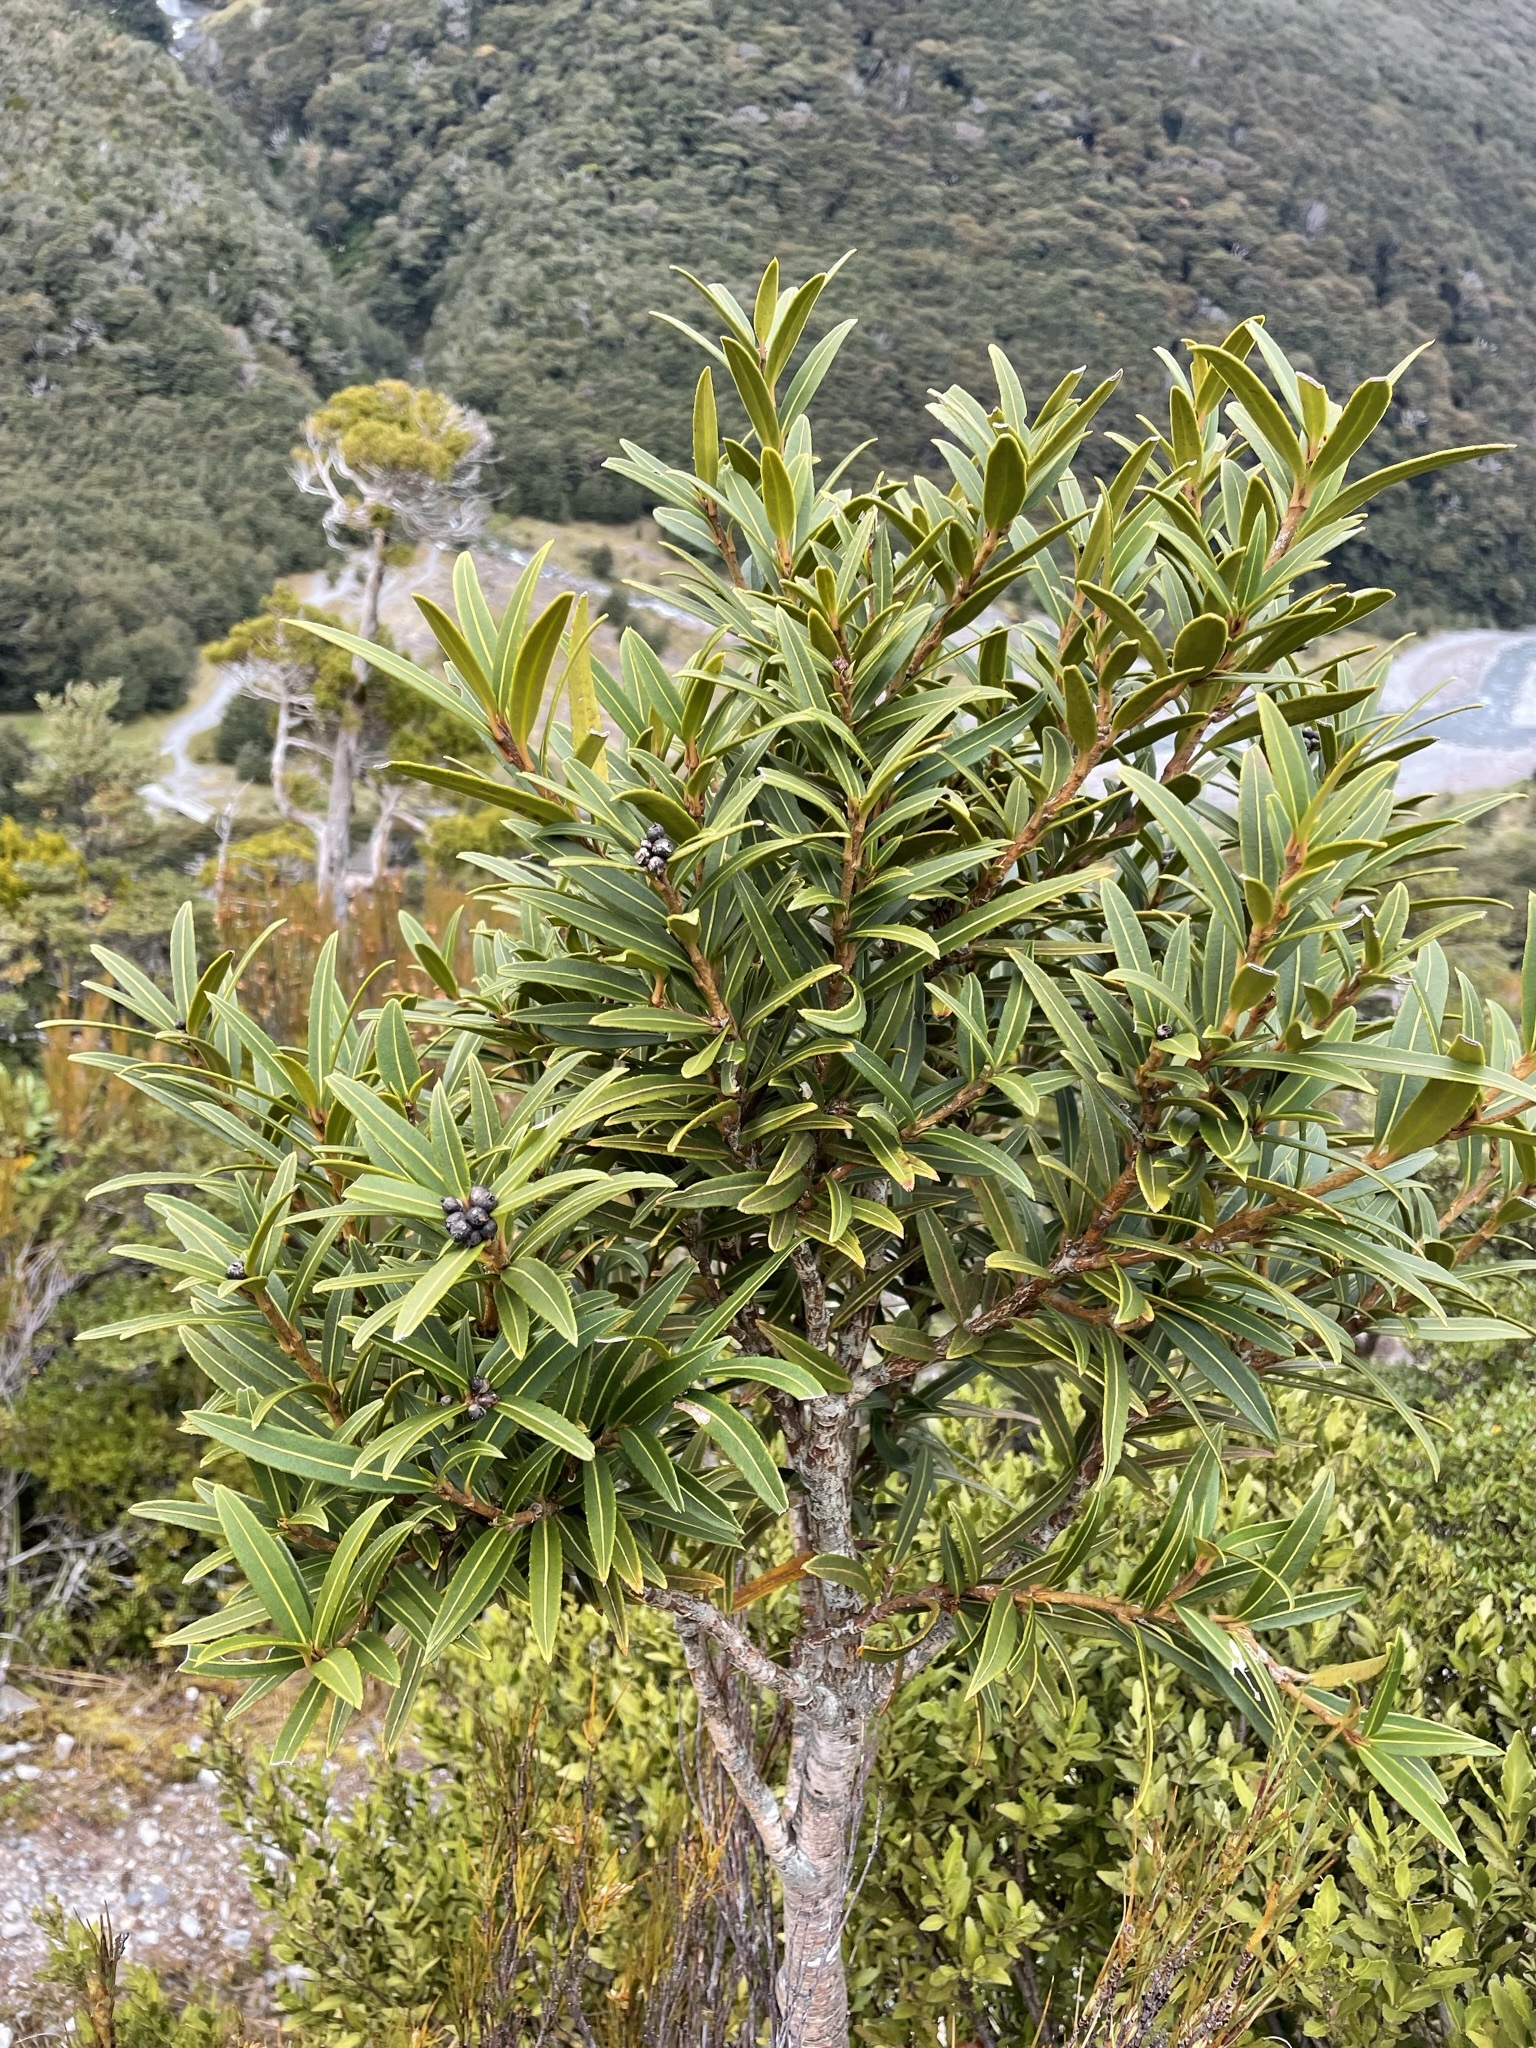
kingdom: Plantae
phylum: Tracheophyta
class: Magnoliopsida
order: Apiales
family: Araliaceae
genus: Pseudopanax
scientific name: Pseudopanax linearis
